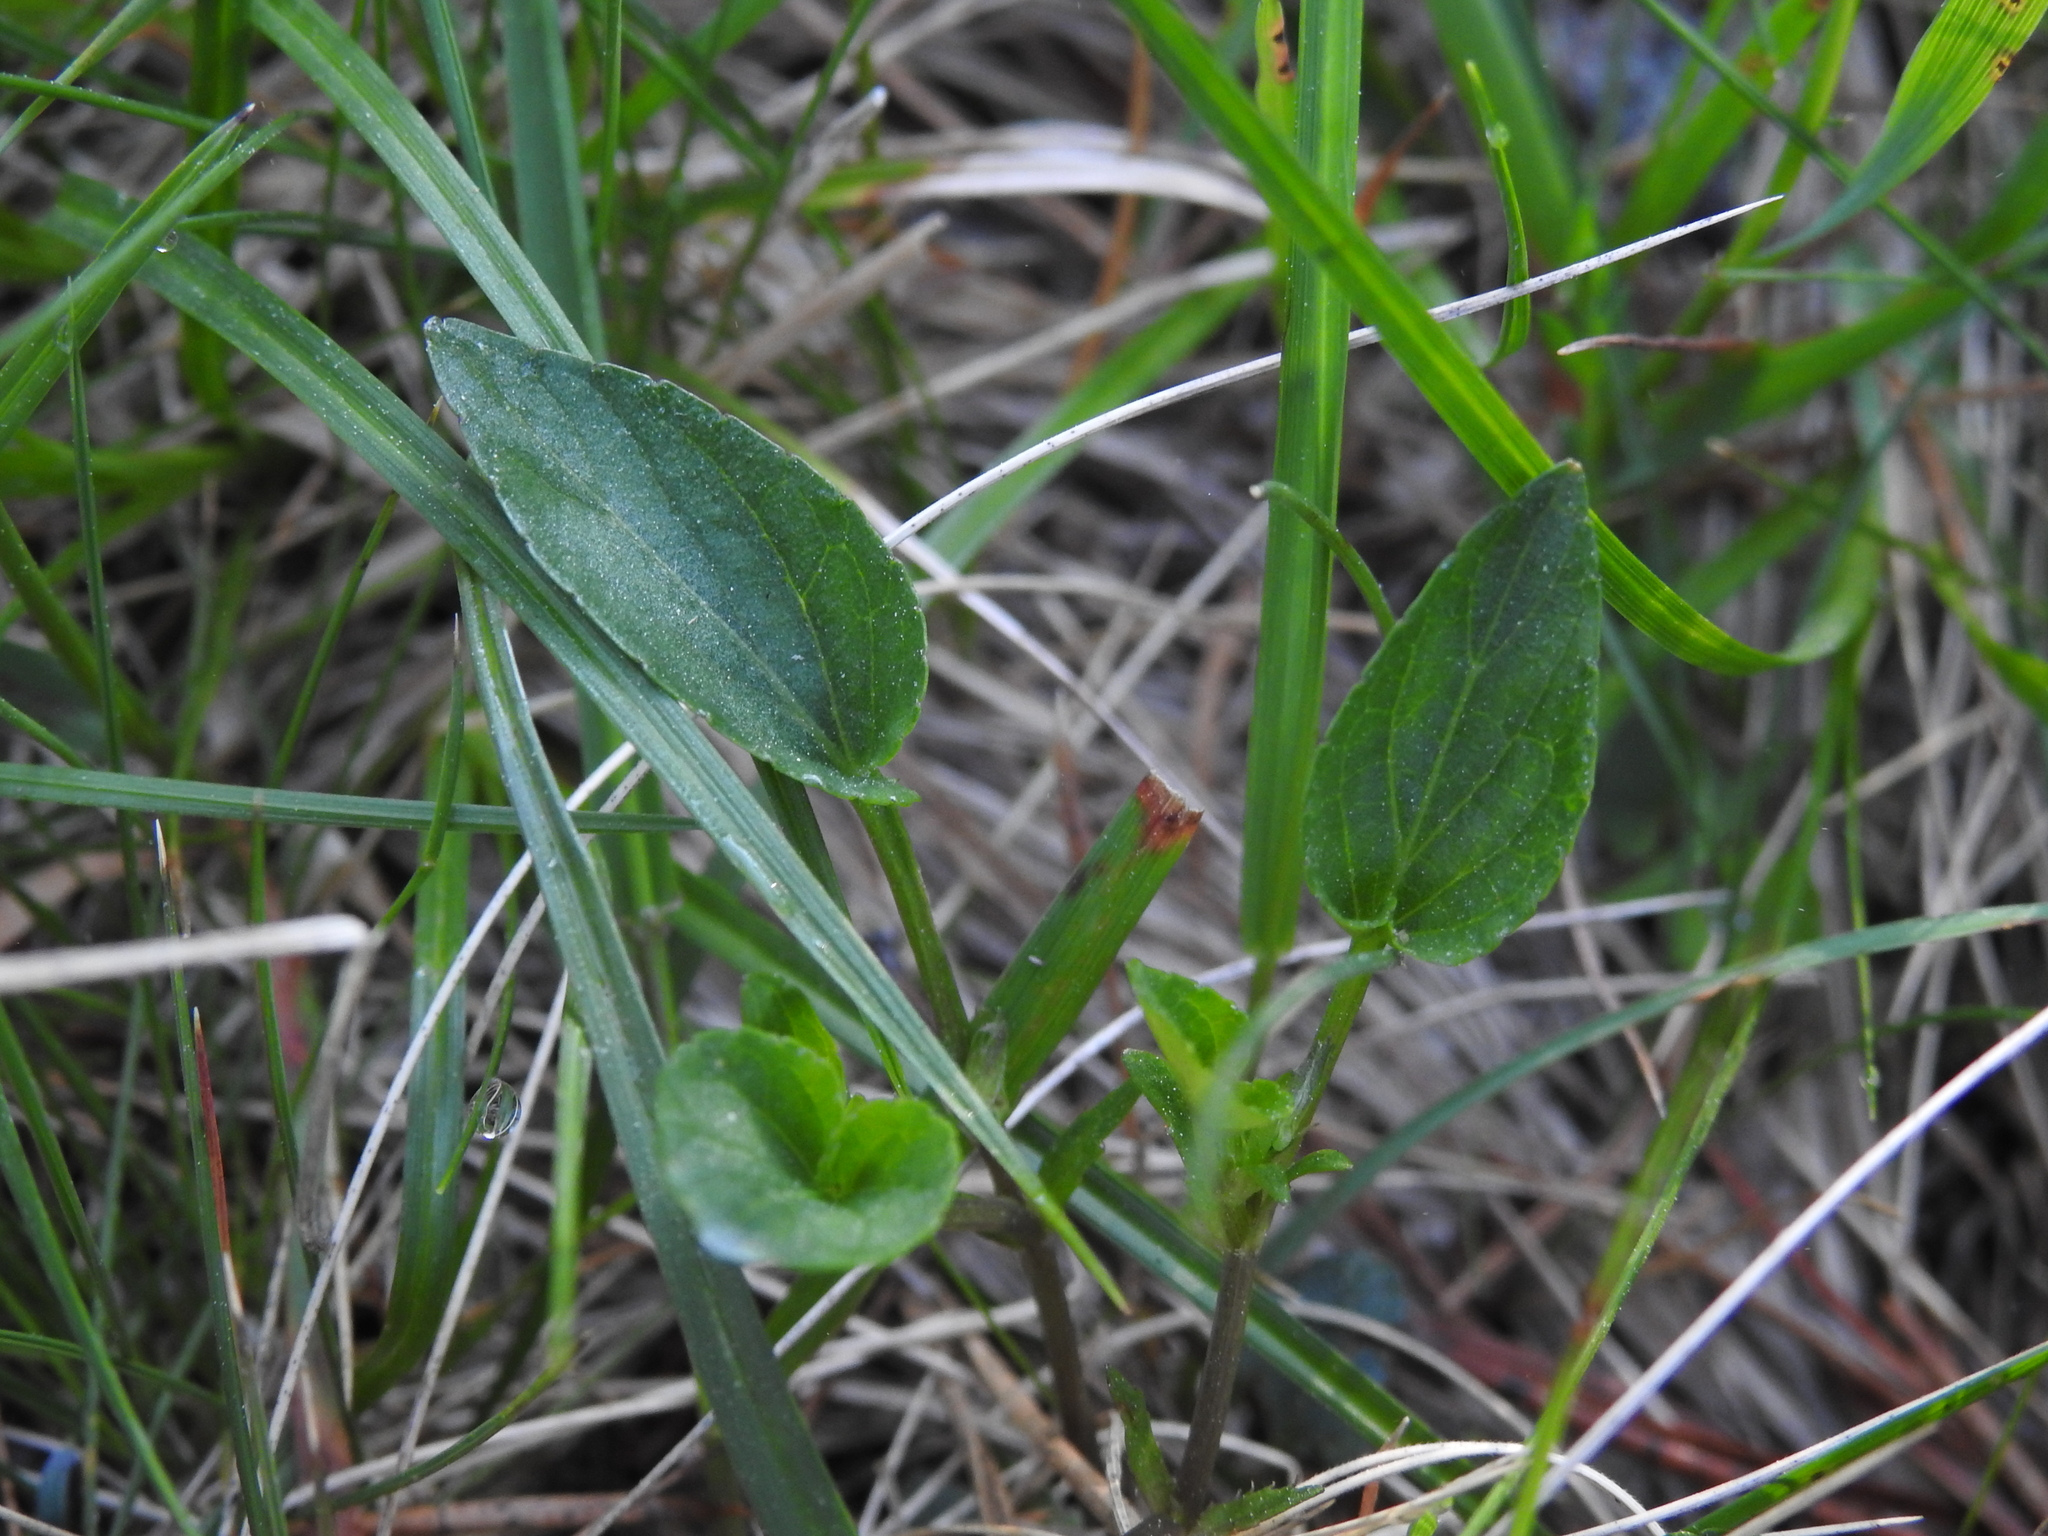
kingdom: Plantae
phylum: Tracheophyta
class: Magnoliopsida
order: Malpighiales
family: Violaceae
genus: Viola
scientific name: Viola canina
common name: Heath dog-violet
